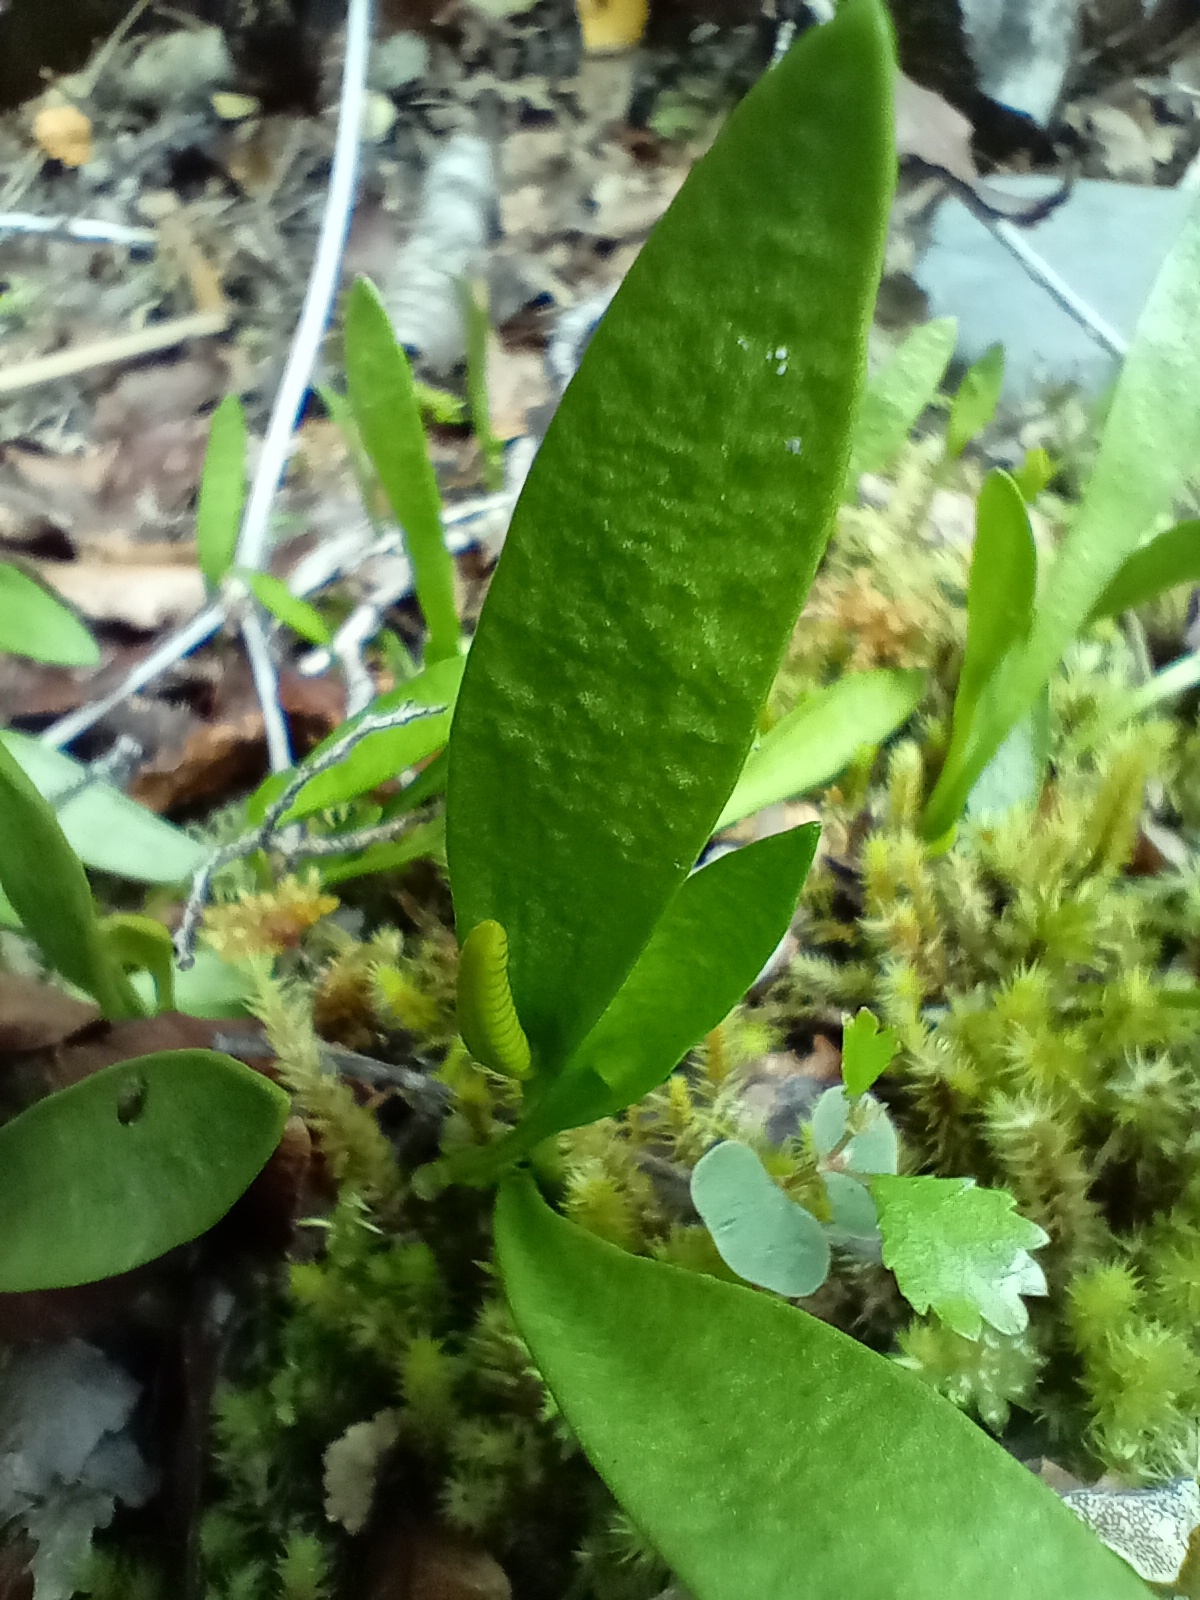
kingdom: Plantae
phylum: Tracheophyta
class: Polypodiopsida
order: Ophioglossales
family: Ophioglossaceae
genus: Ophioglossum
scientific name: Ophioglossum coriaceum
